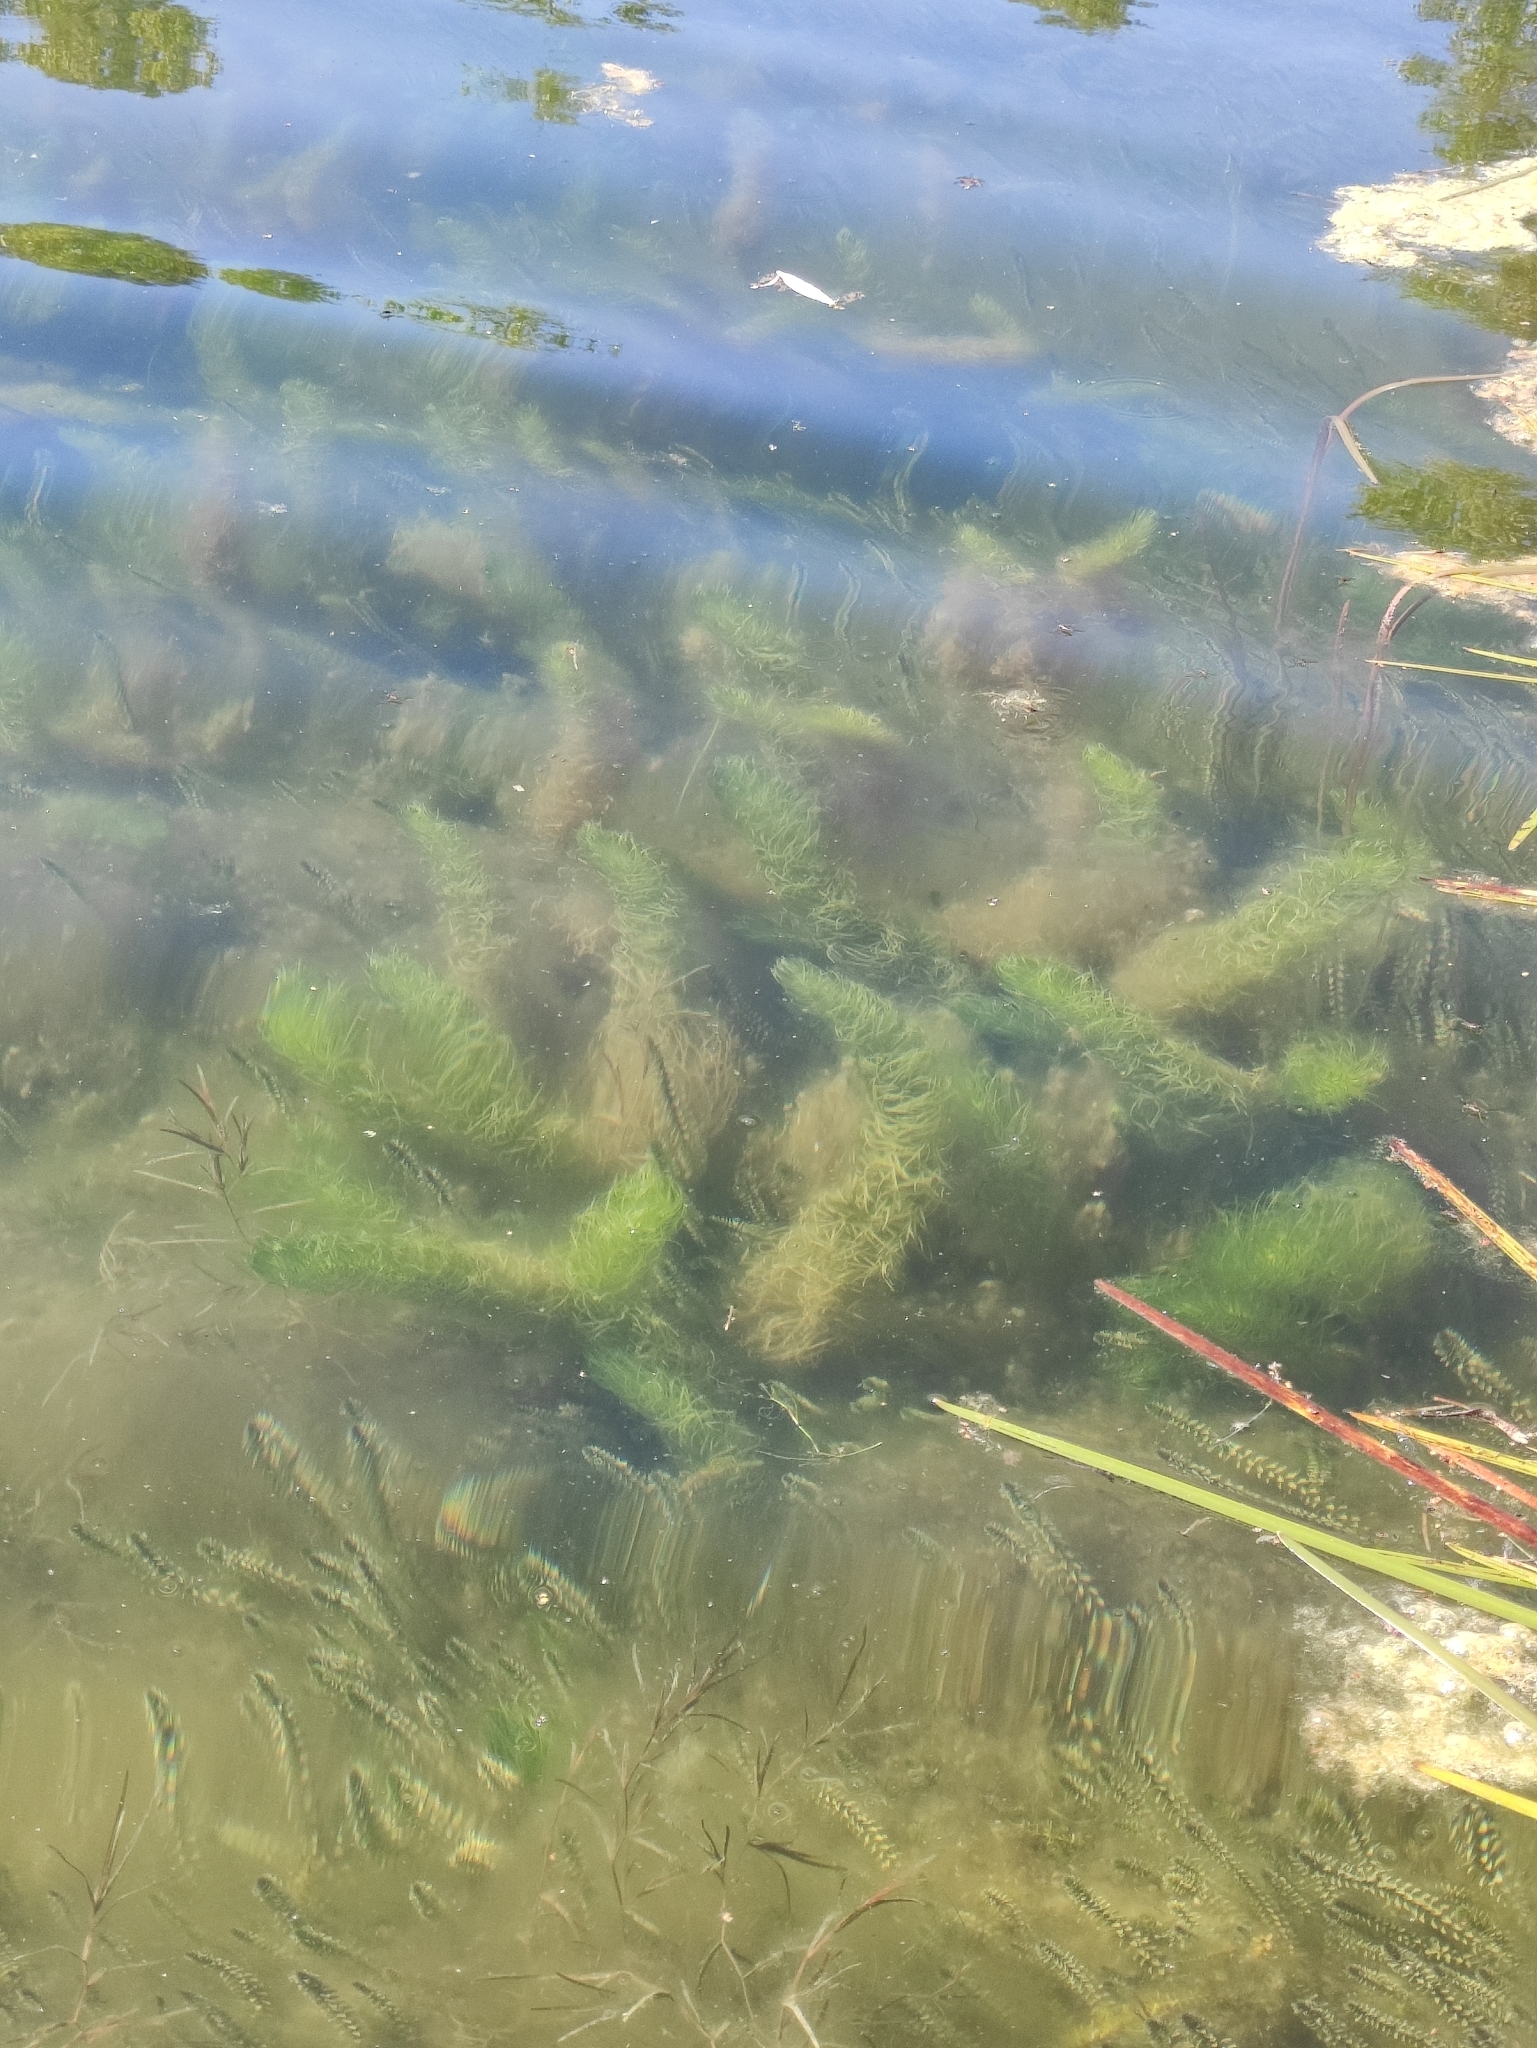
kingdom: Plantae
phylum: Tracheophyta
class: Magnoliopsida
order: Lamiales
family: Plantaginaceae
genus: Hippuris
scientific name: Hippuris vulgaris
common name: Mare's-tail
